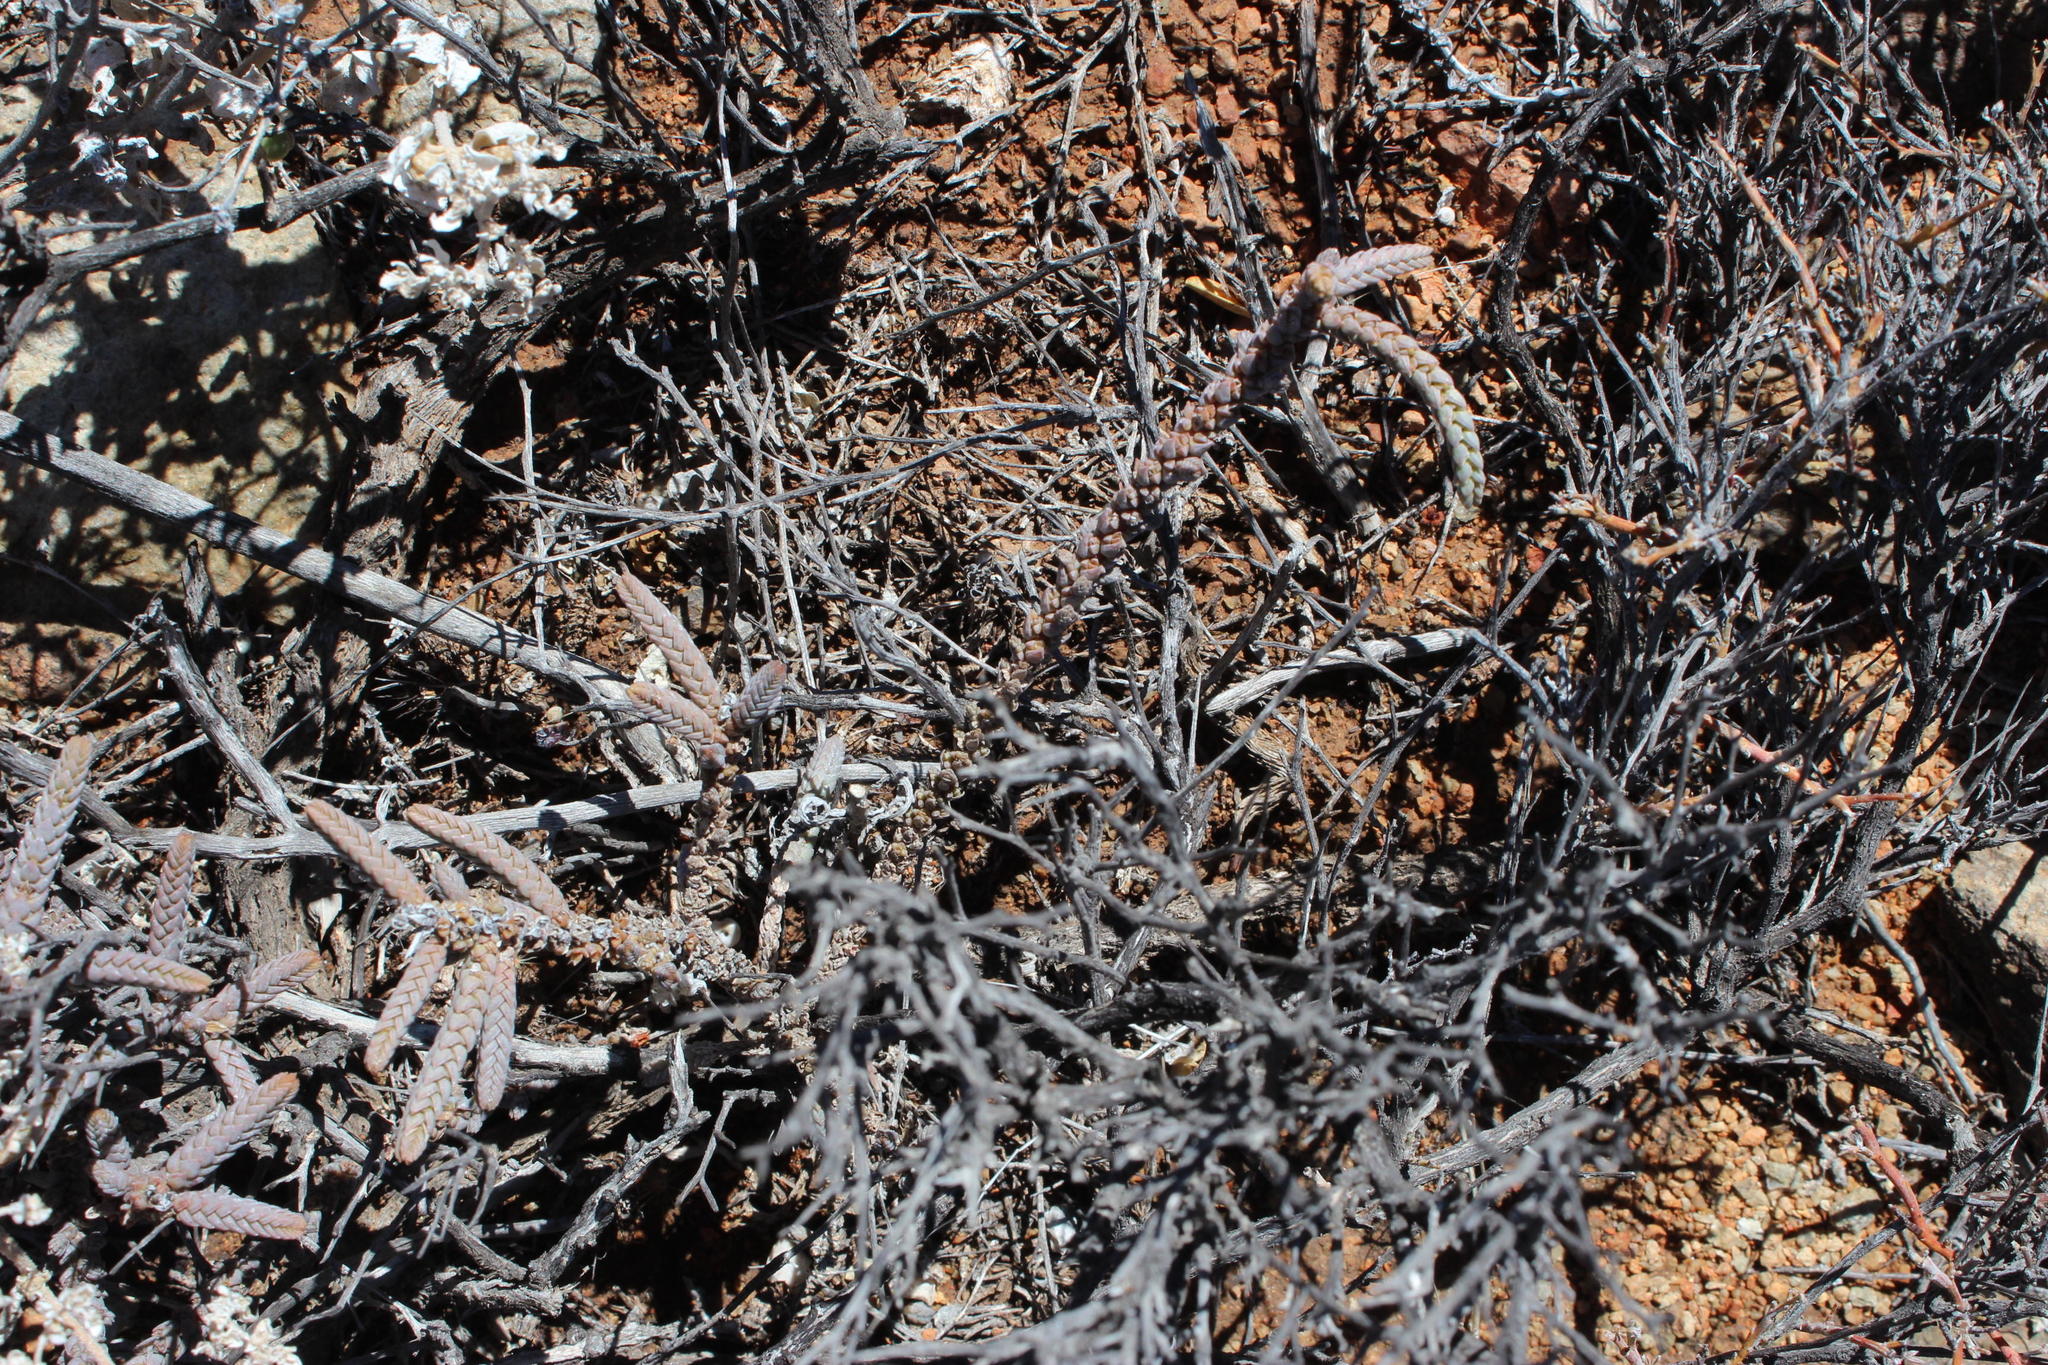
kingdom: Plantae
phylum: Tracheophyta
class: Magnoliopsida
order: Saxifragales
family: Crassulaceae
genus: Crassula
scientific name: Crassula muscosa
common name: Toy-cypress
